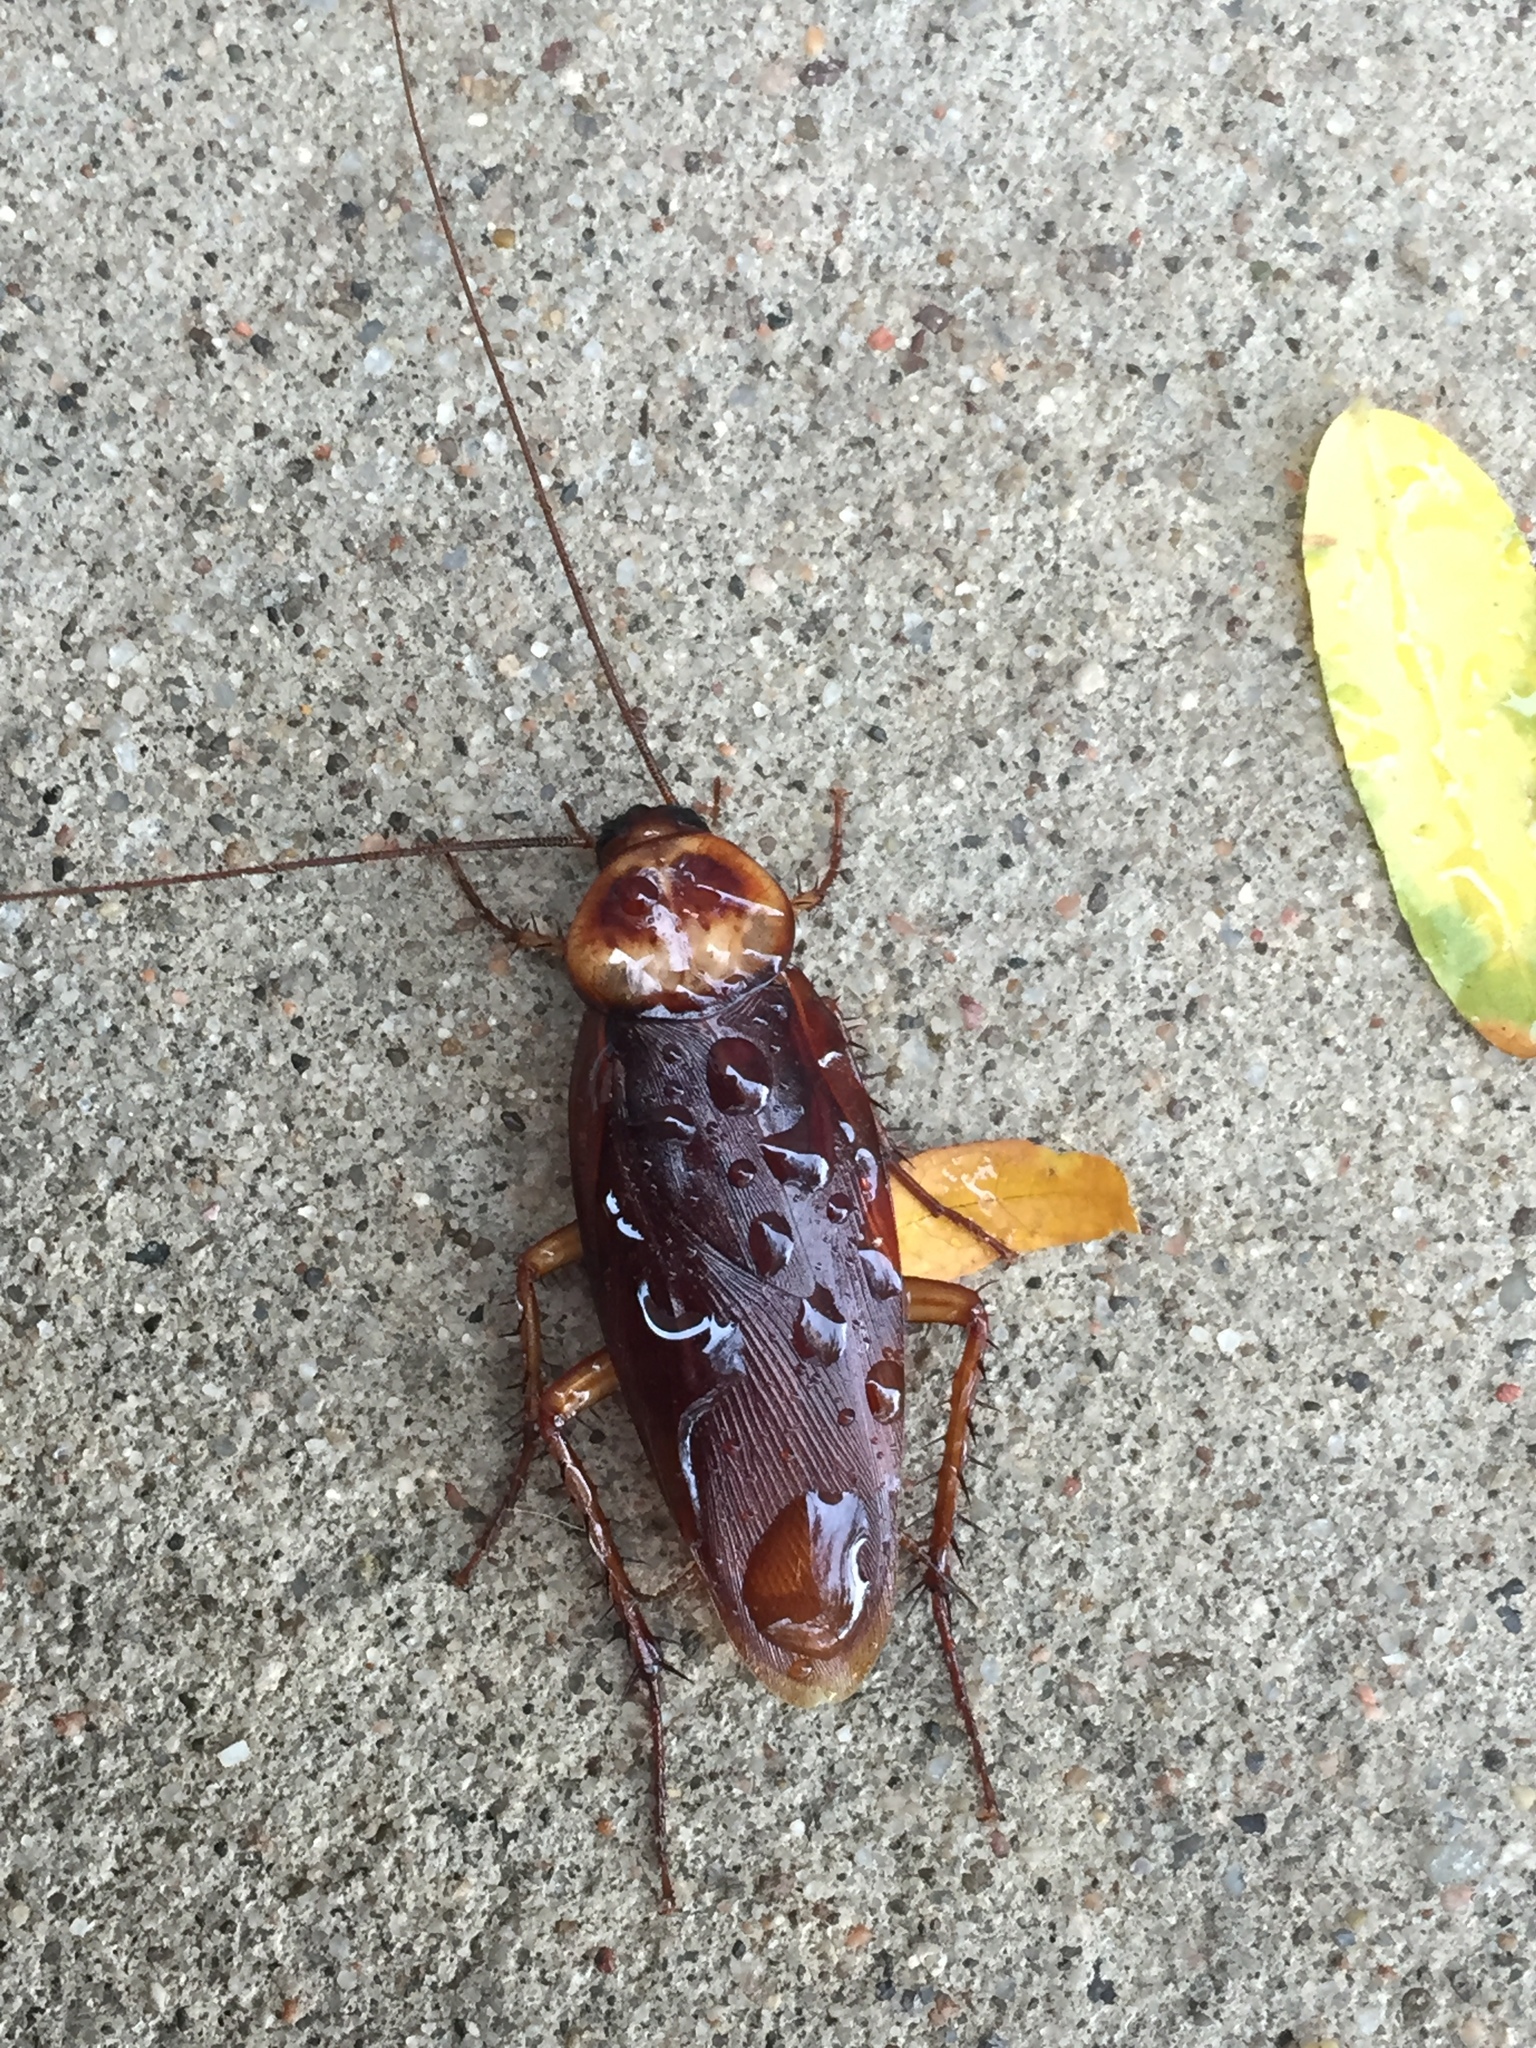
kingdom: Animalia
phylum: Arthropoda
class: Insecta
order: Blattodea
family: Blattidae
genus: Periplaneta
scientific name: Periplaneta americana
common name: American cockroach
